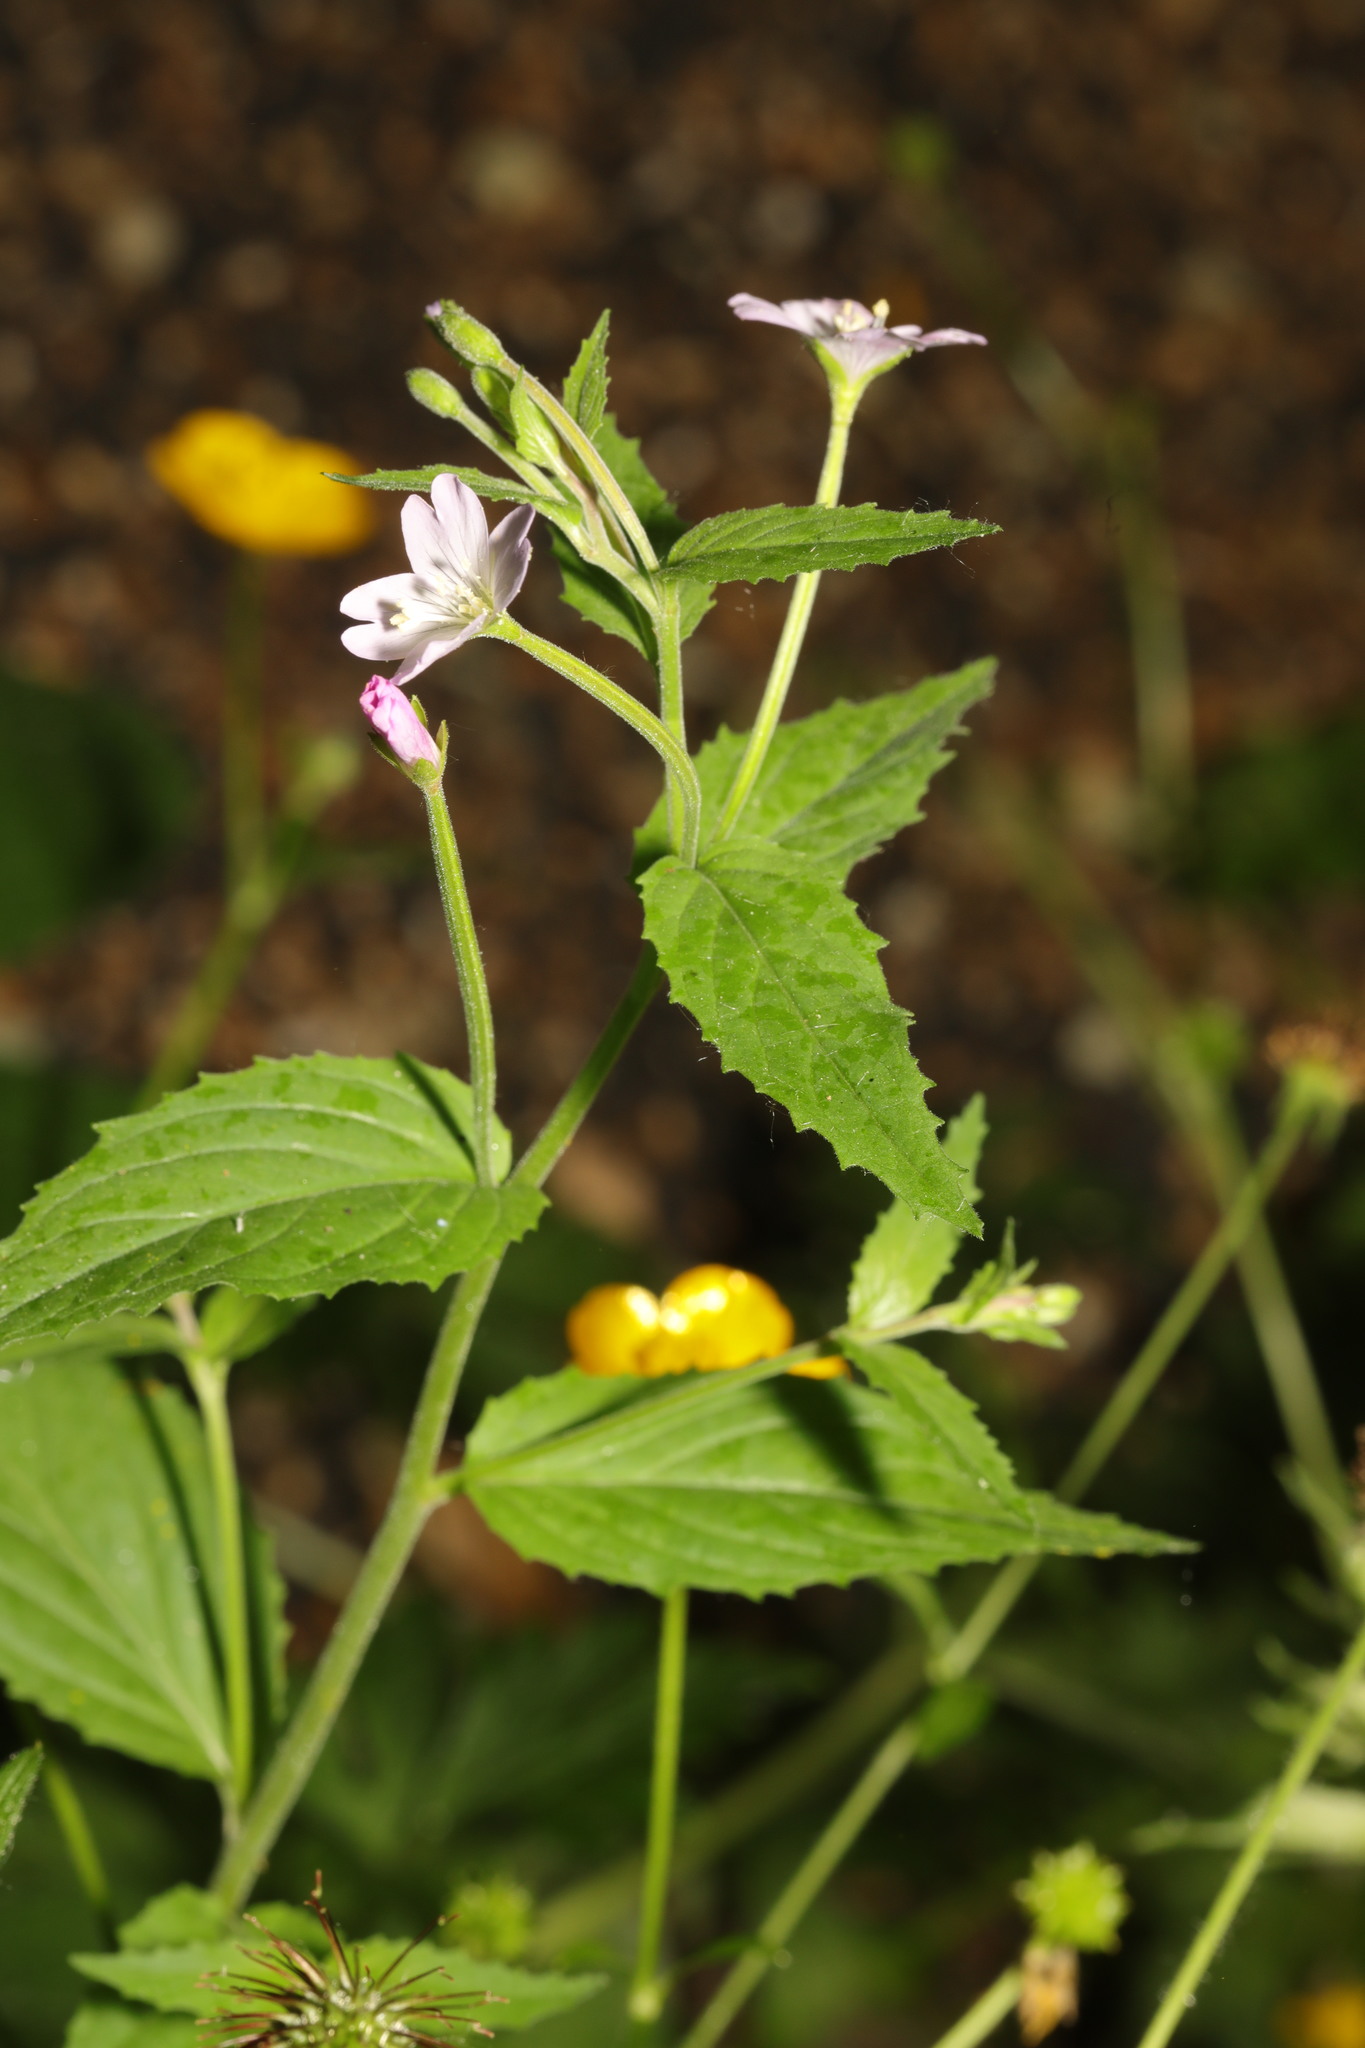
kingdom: Plantae
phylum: Tracheophyta
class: Magnoliopsida
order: Myrtales
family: Onagraceae
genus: Epilobium
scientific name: Epilobium montanum
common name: Broad-leaved willowherb
